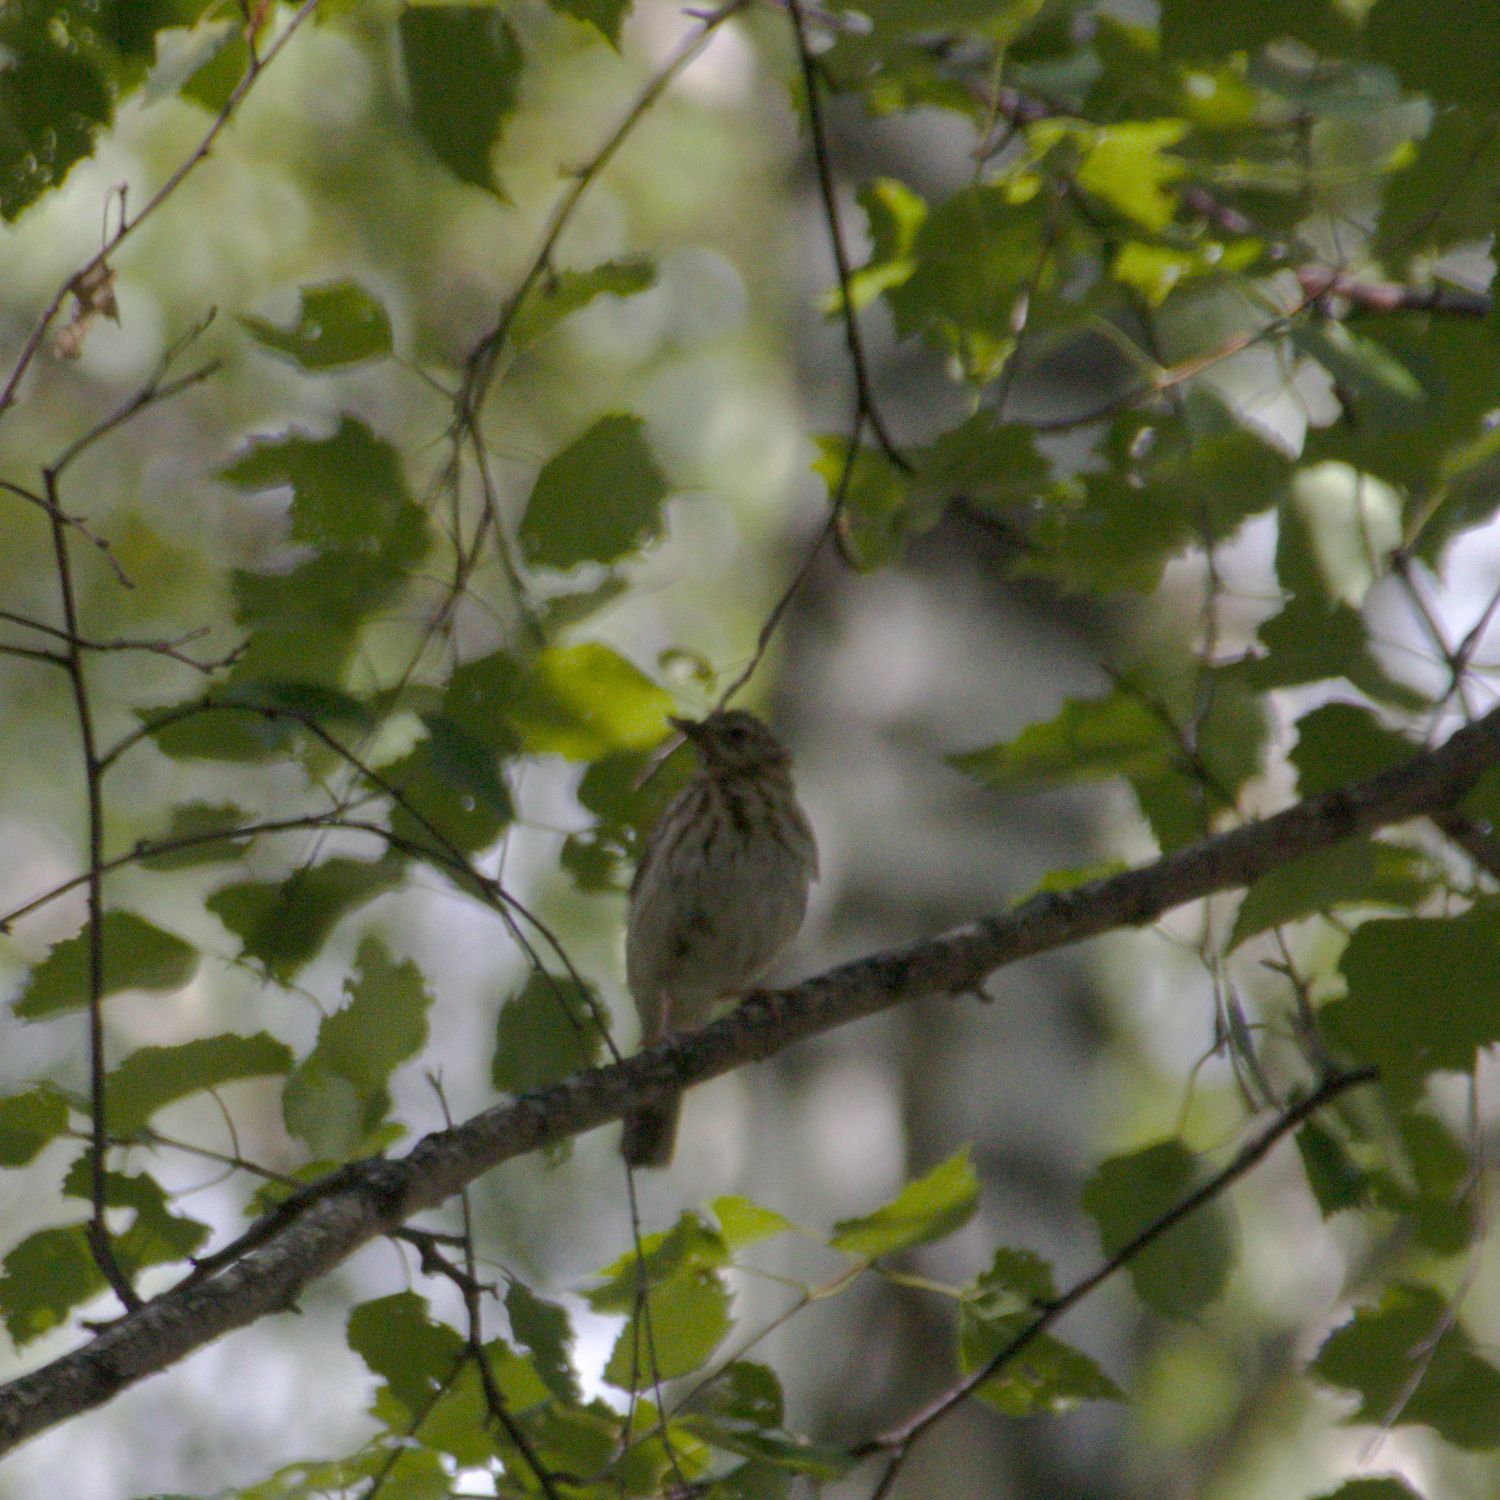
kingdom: Animalia
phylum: Chordata
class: Aves
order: Passeriformes
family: Motacillidae
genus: Anthus
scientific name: Anthus trivialis
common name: Tree pipit
